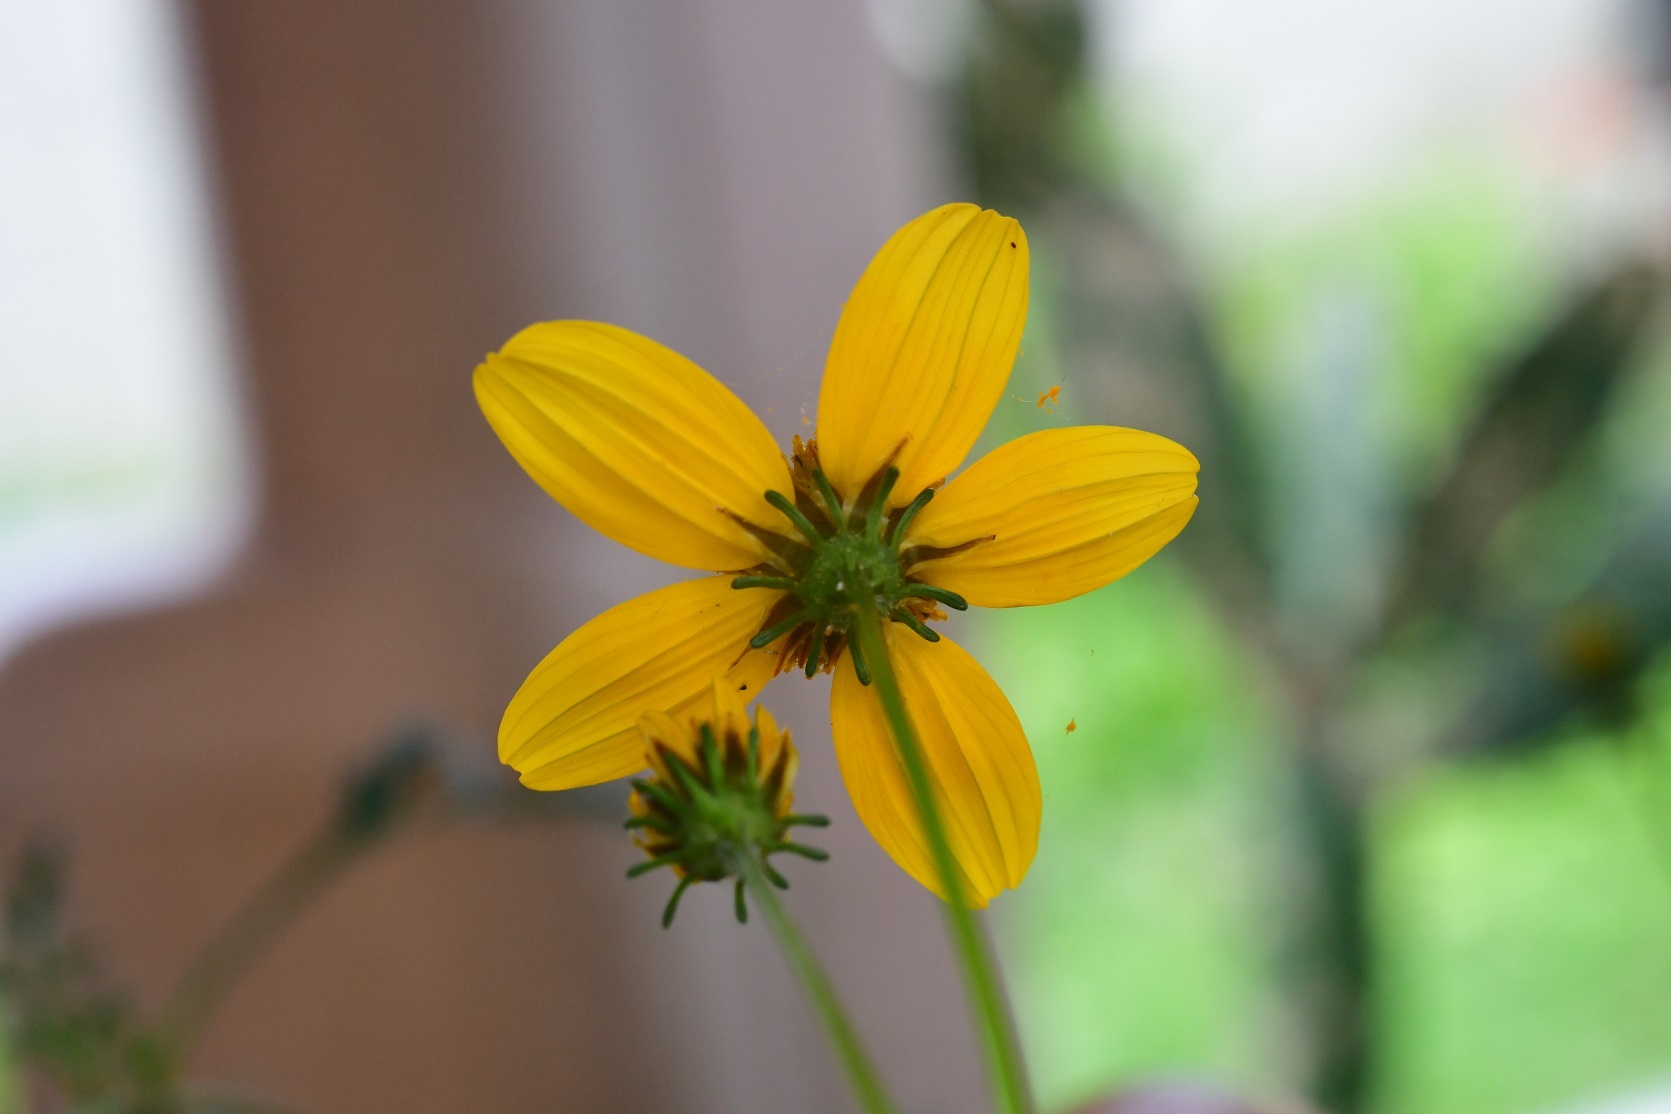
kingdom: Plantae
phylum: Tracheophyta
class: Magnoliopsida
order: Asterales
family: Asteraceae
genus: Bidens
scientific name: Bidens triplinervia
